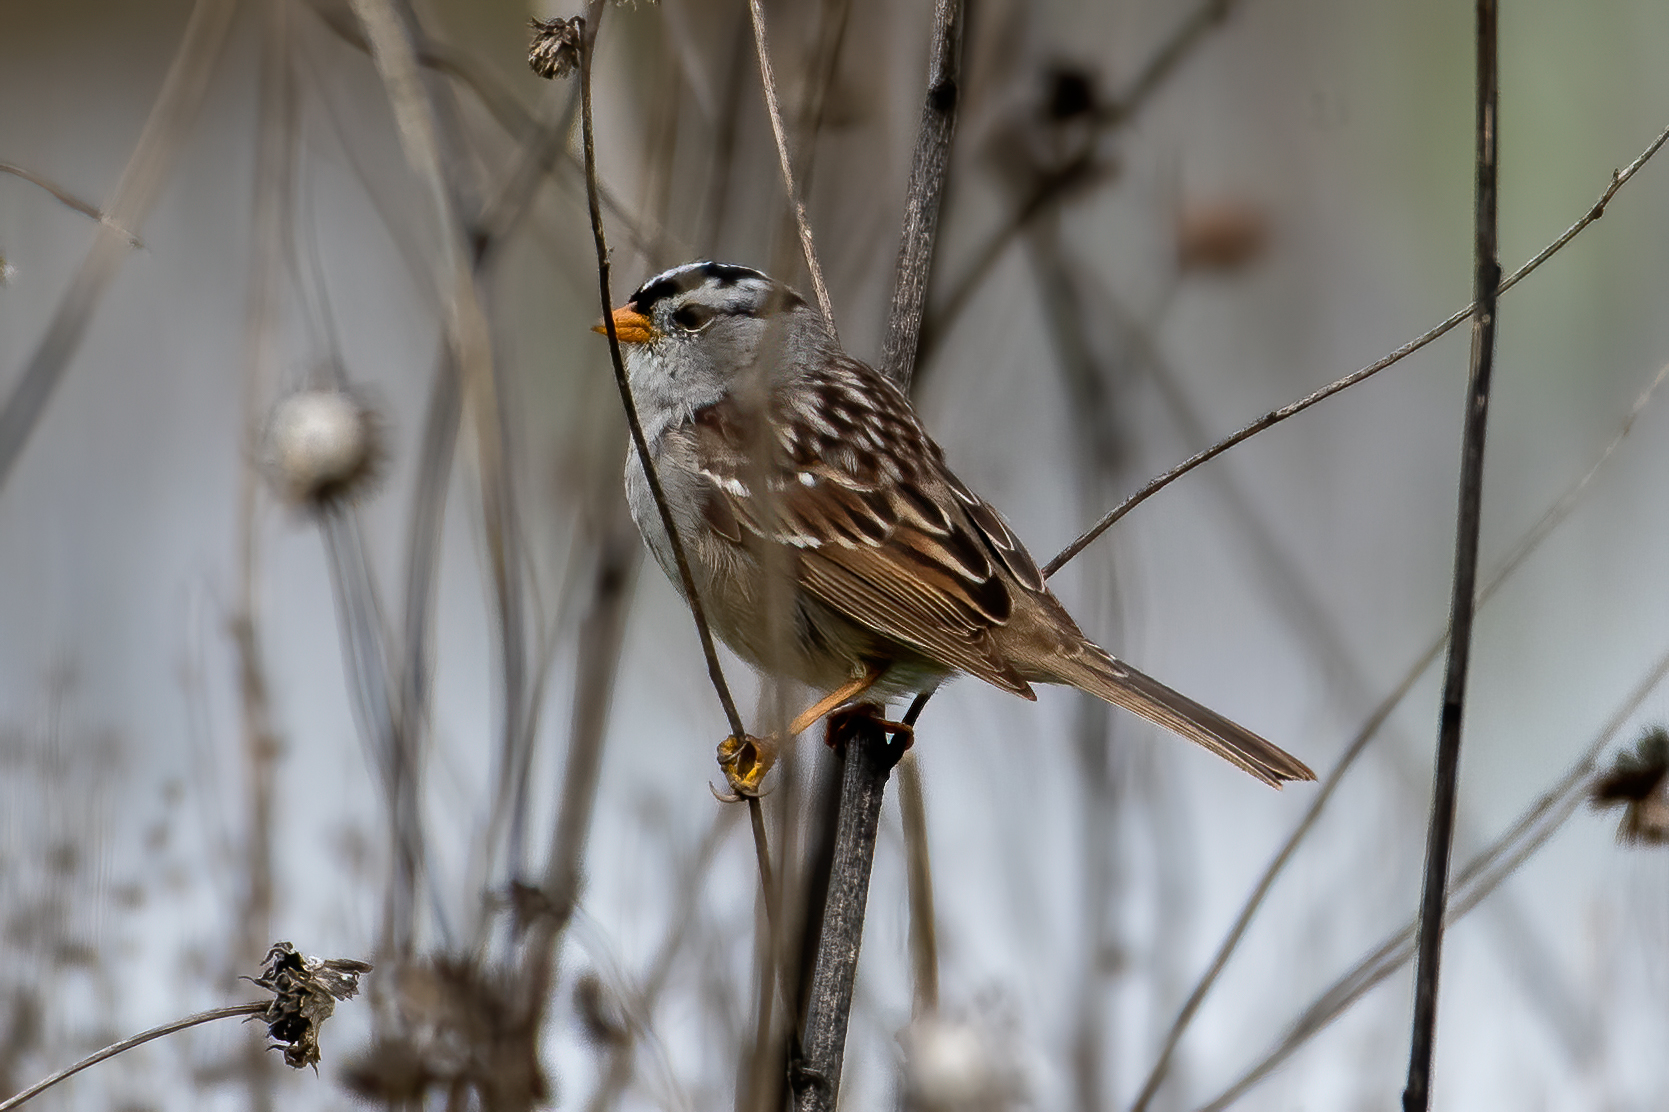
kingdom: Animalia
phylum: Chordata
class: Aves
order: Passeriformes
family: Passerellidae
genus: Zonotrichia
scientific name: Zonotrichia leucophrys
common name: White-crowned sparrow
